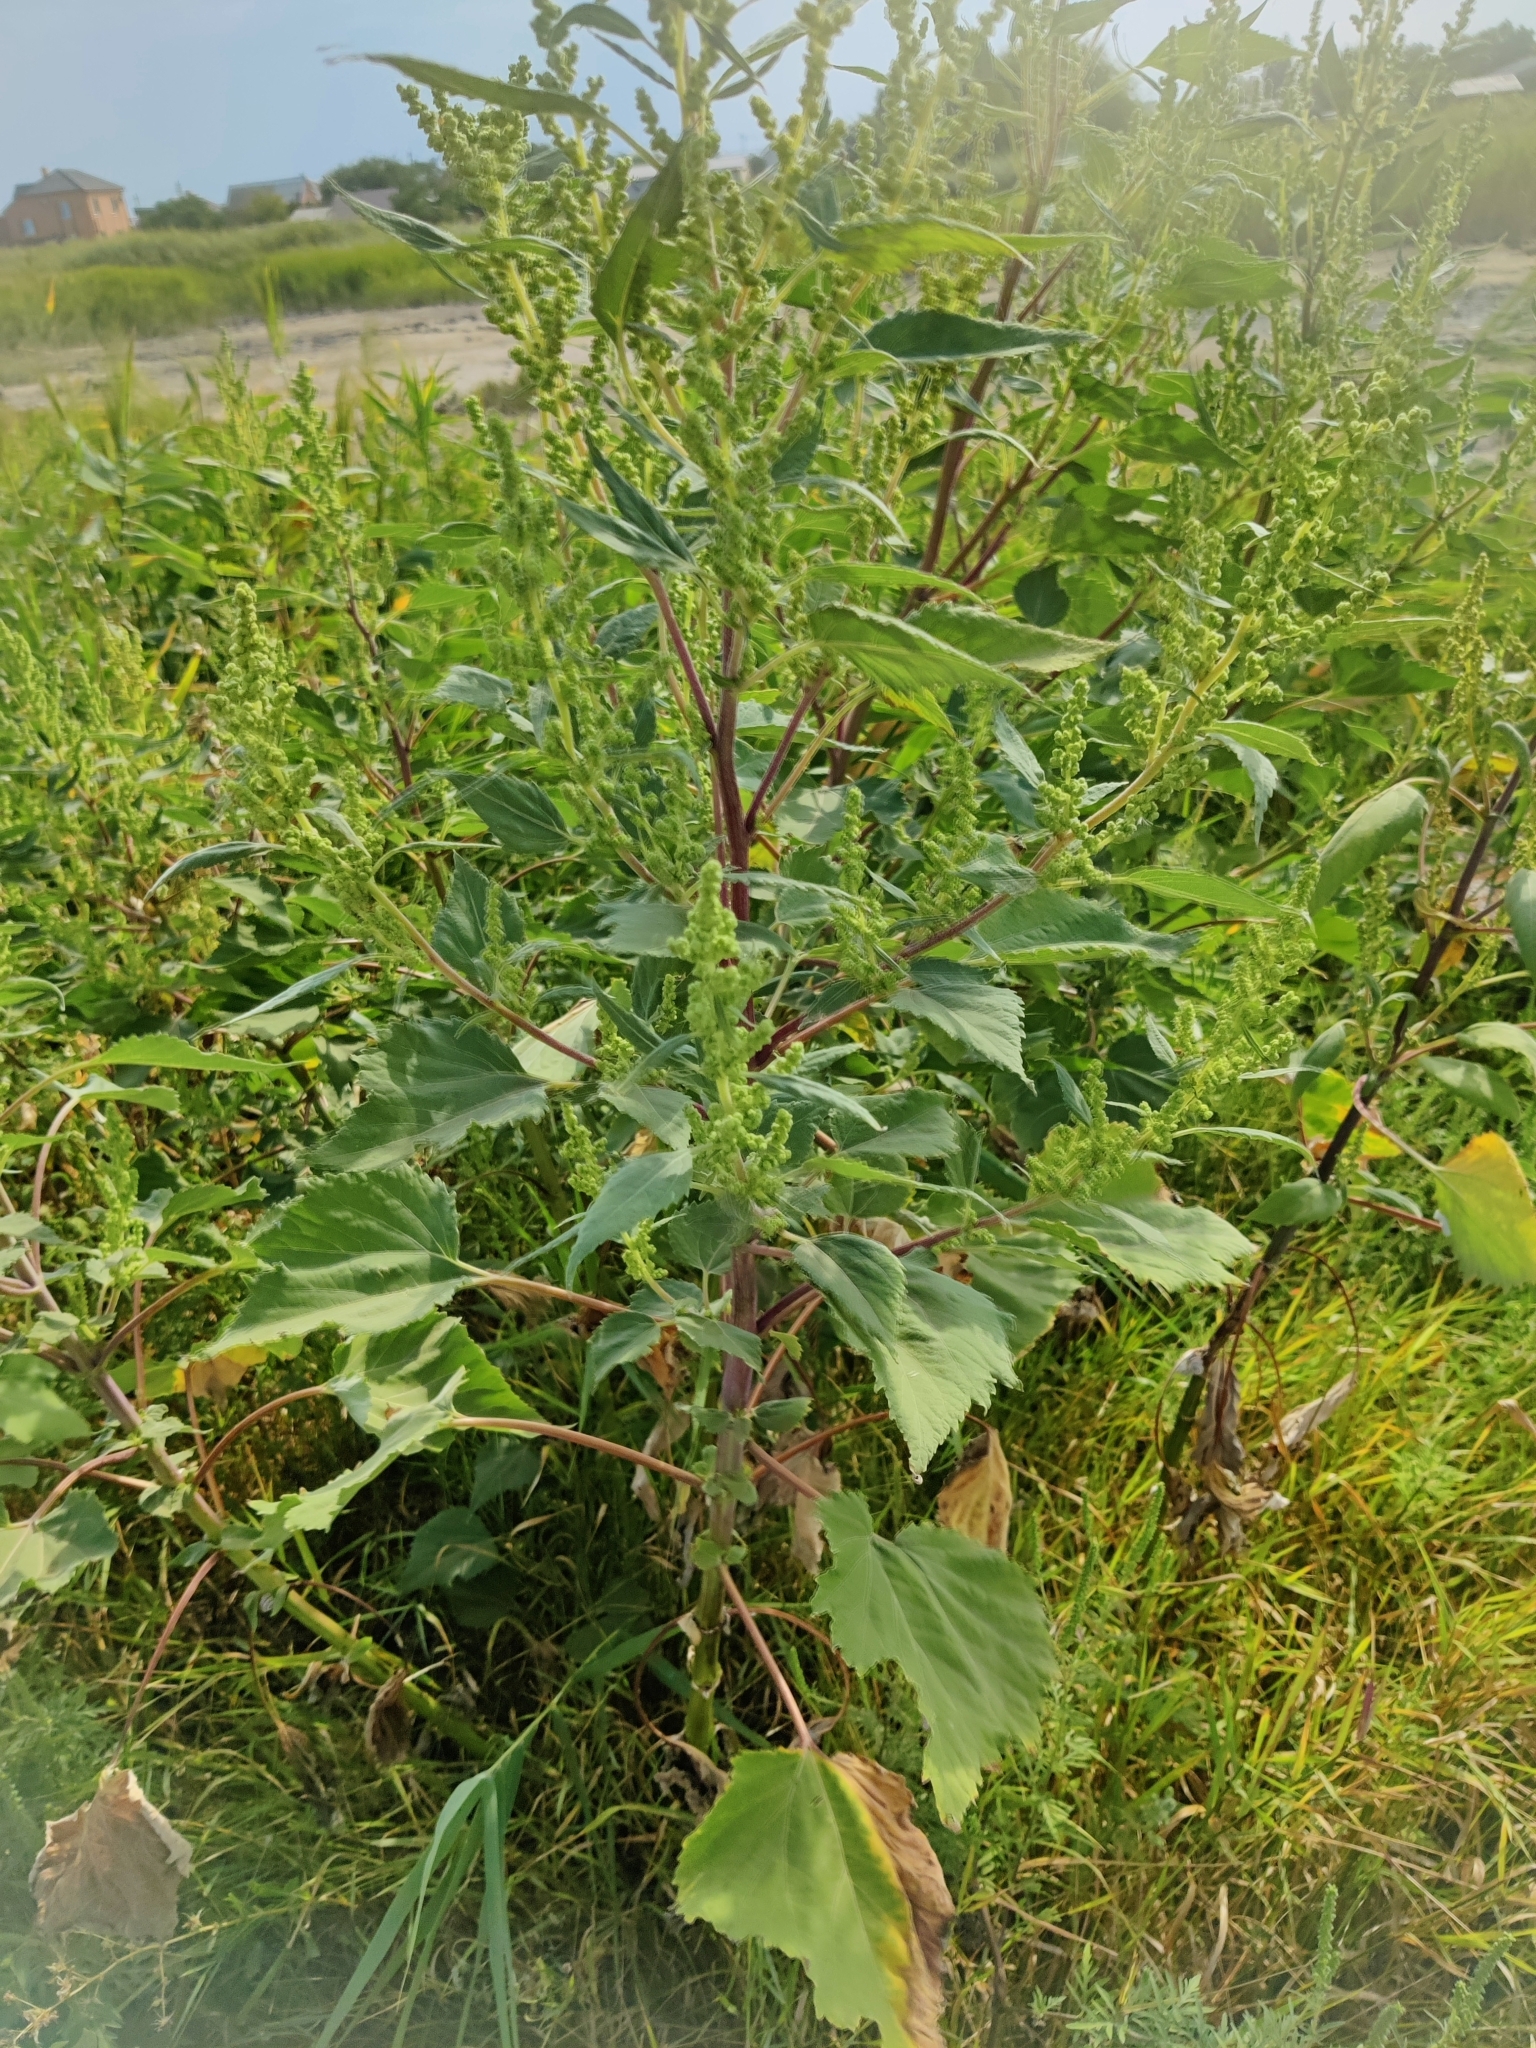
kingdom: Plantae
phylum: Tracheophyta
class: Magnoliopsida
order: Asterales
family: Asteraceae
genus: Cyclachaena
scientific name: Cyclachaena xanthiifolia
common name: Giant sumpweed
